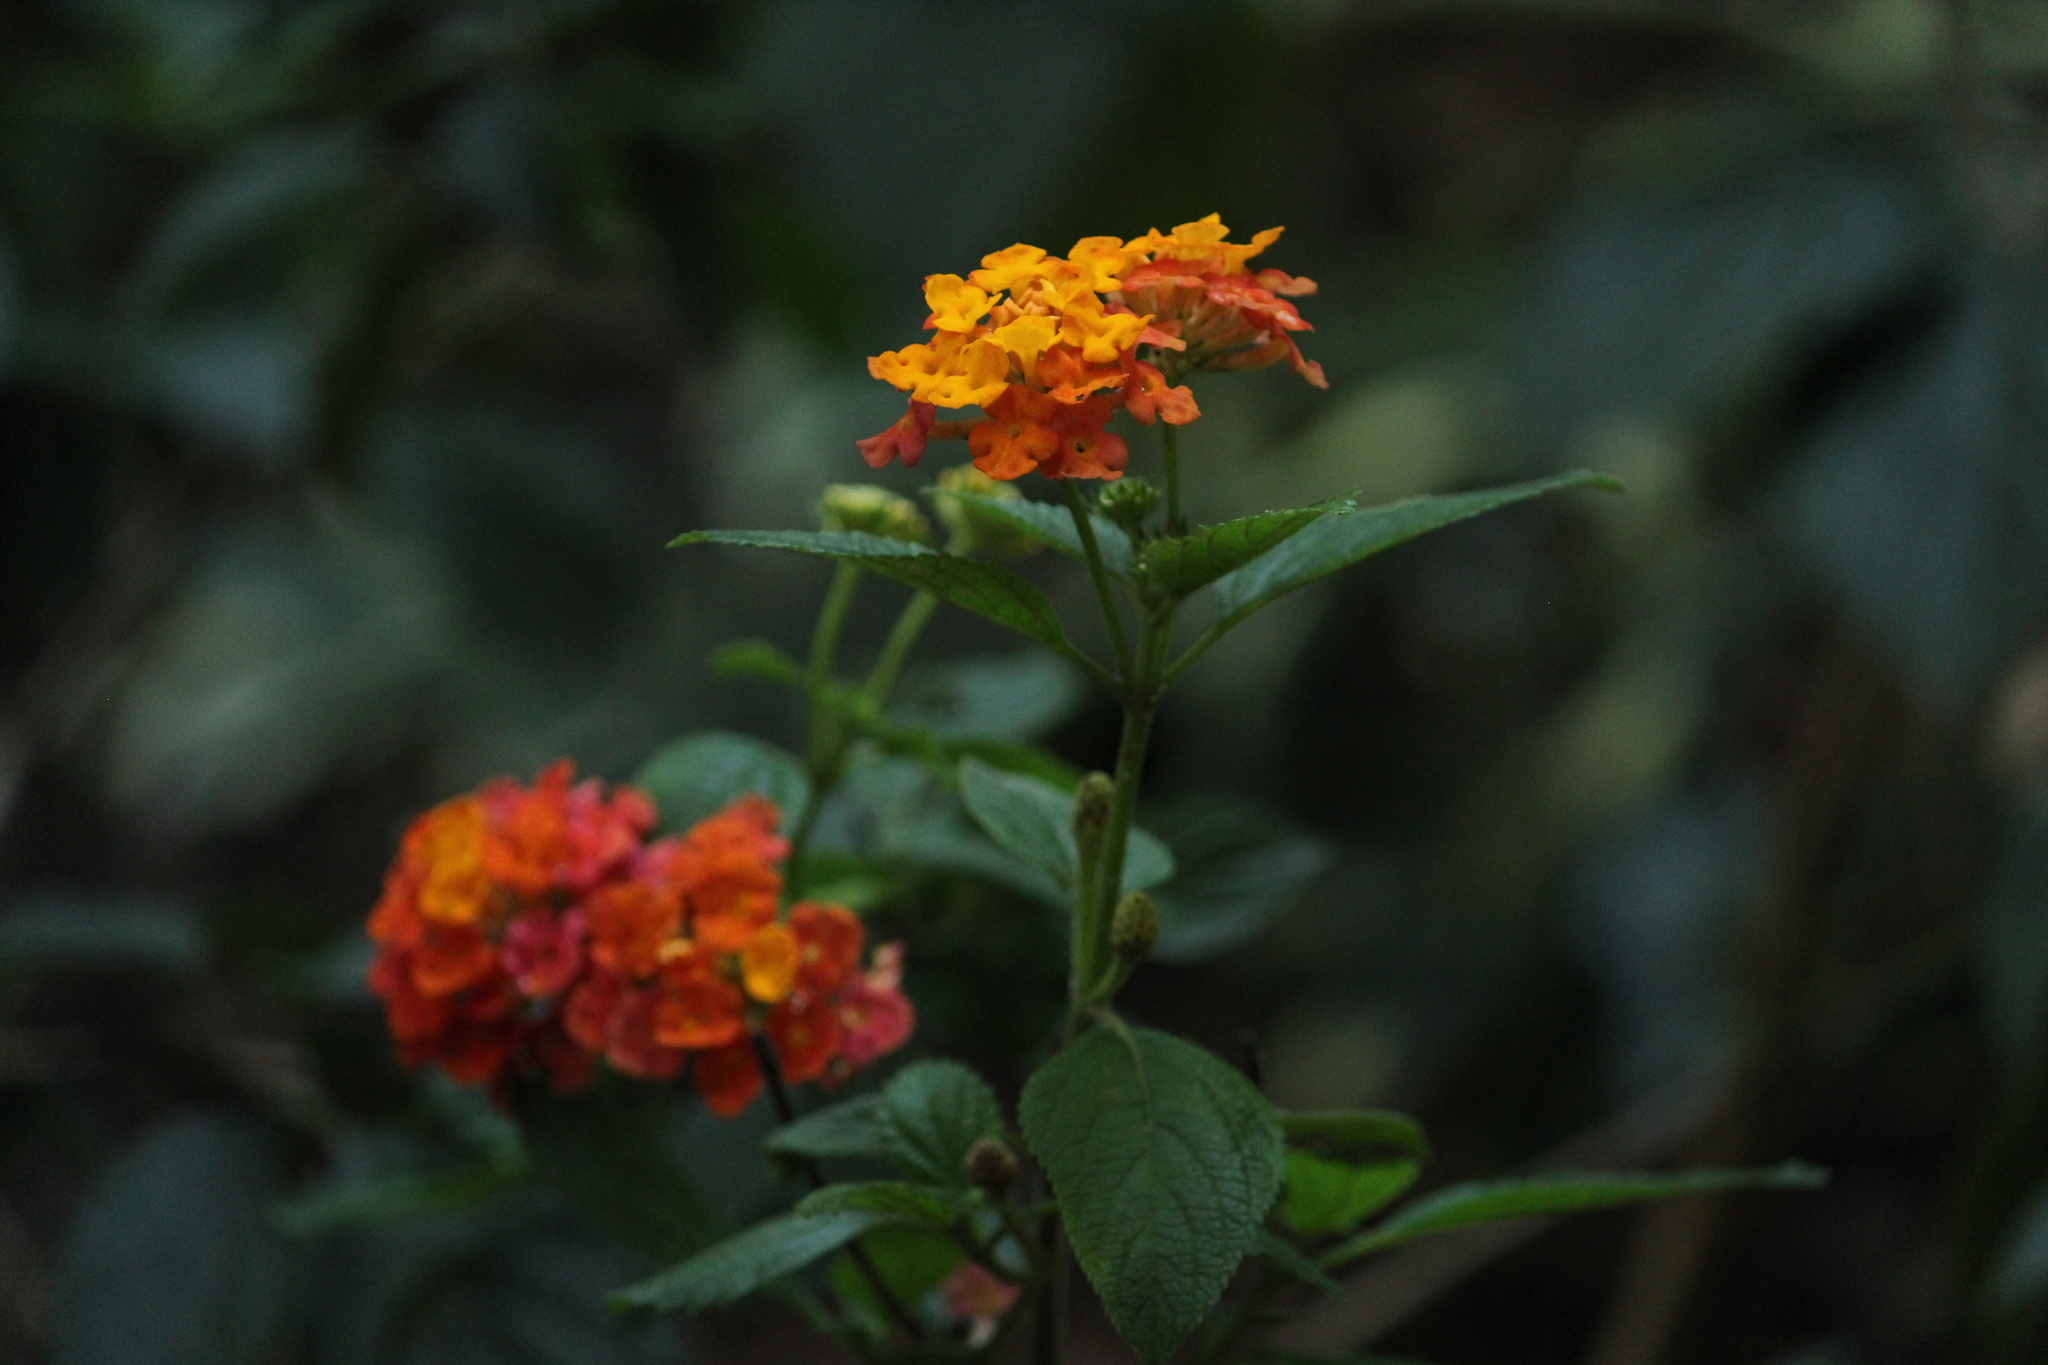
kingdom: Plantae
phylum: Tracheophyta
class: Magnoliopsida
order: Lamiales
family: Verbenaceae
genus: Lantana
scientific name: Lantana camara
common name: Lantana
